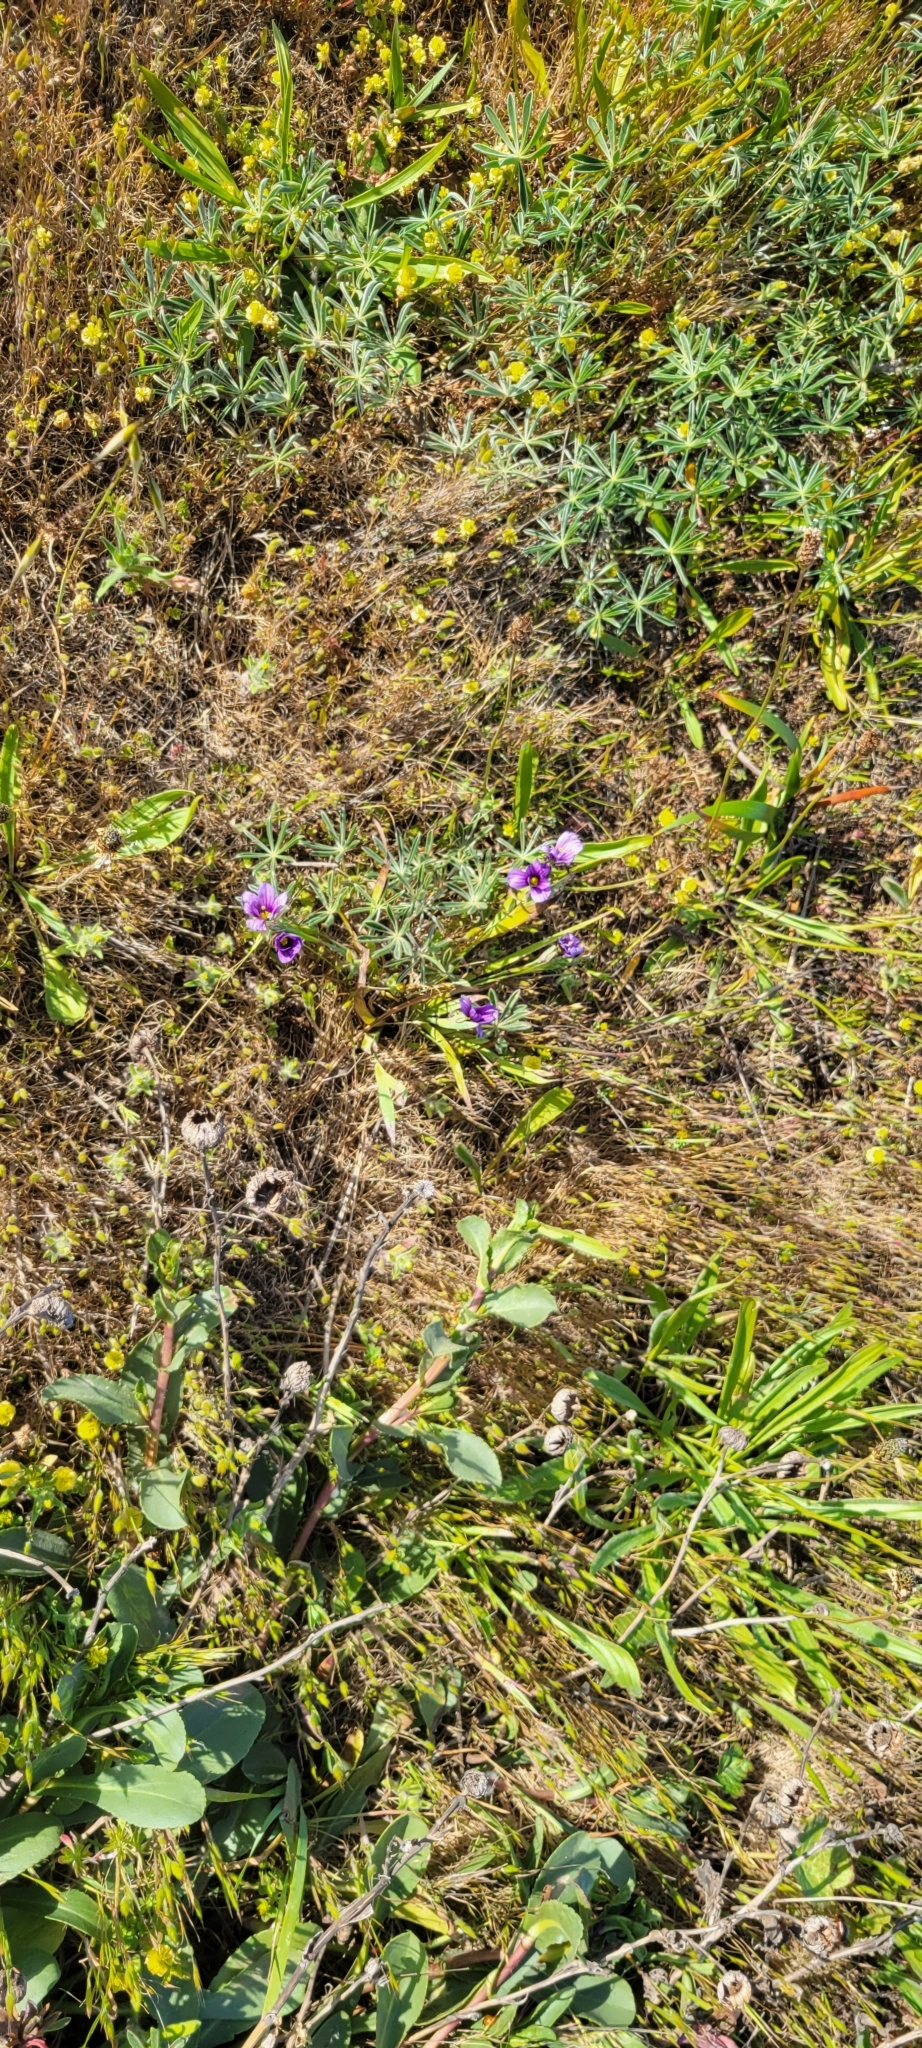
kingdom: Plantae
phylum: Tracheophyta
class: Liliopsida
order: Asparagales
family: Iridaceae
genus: Sisyrinchium
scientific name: Sisyrinchium bellum
